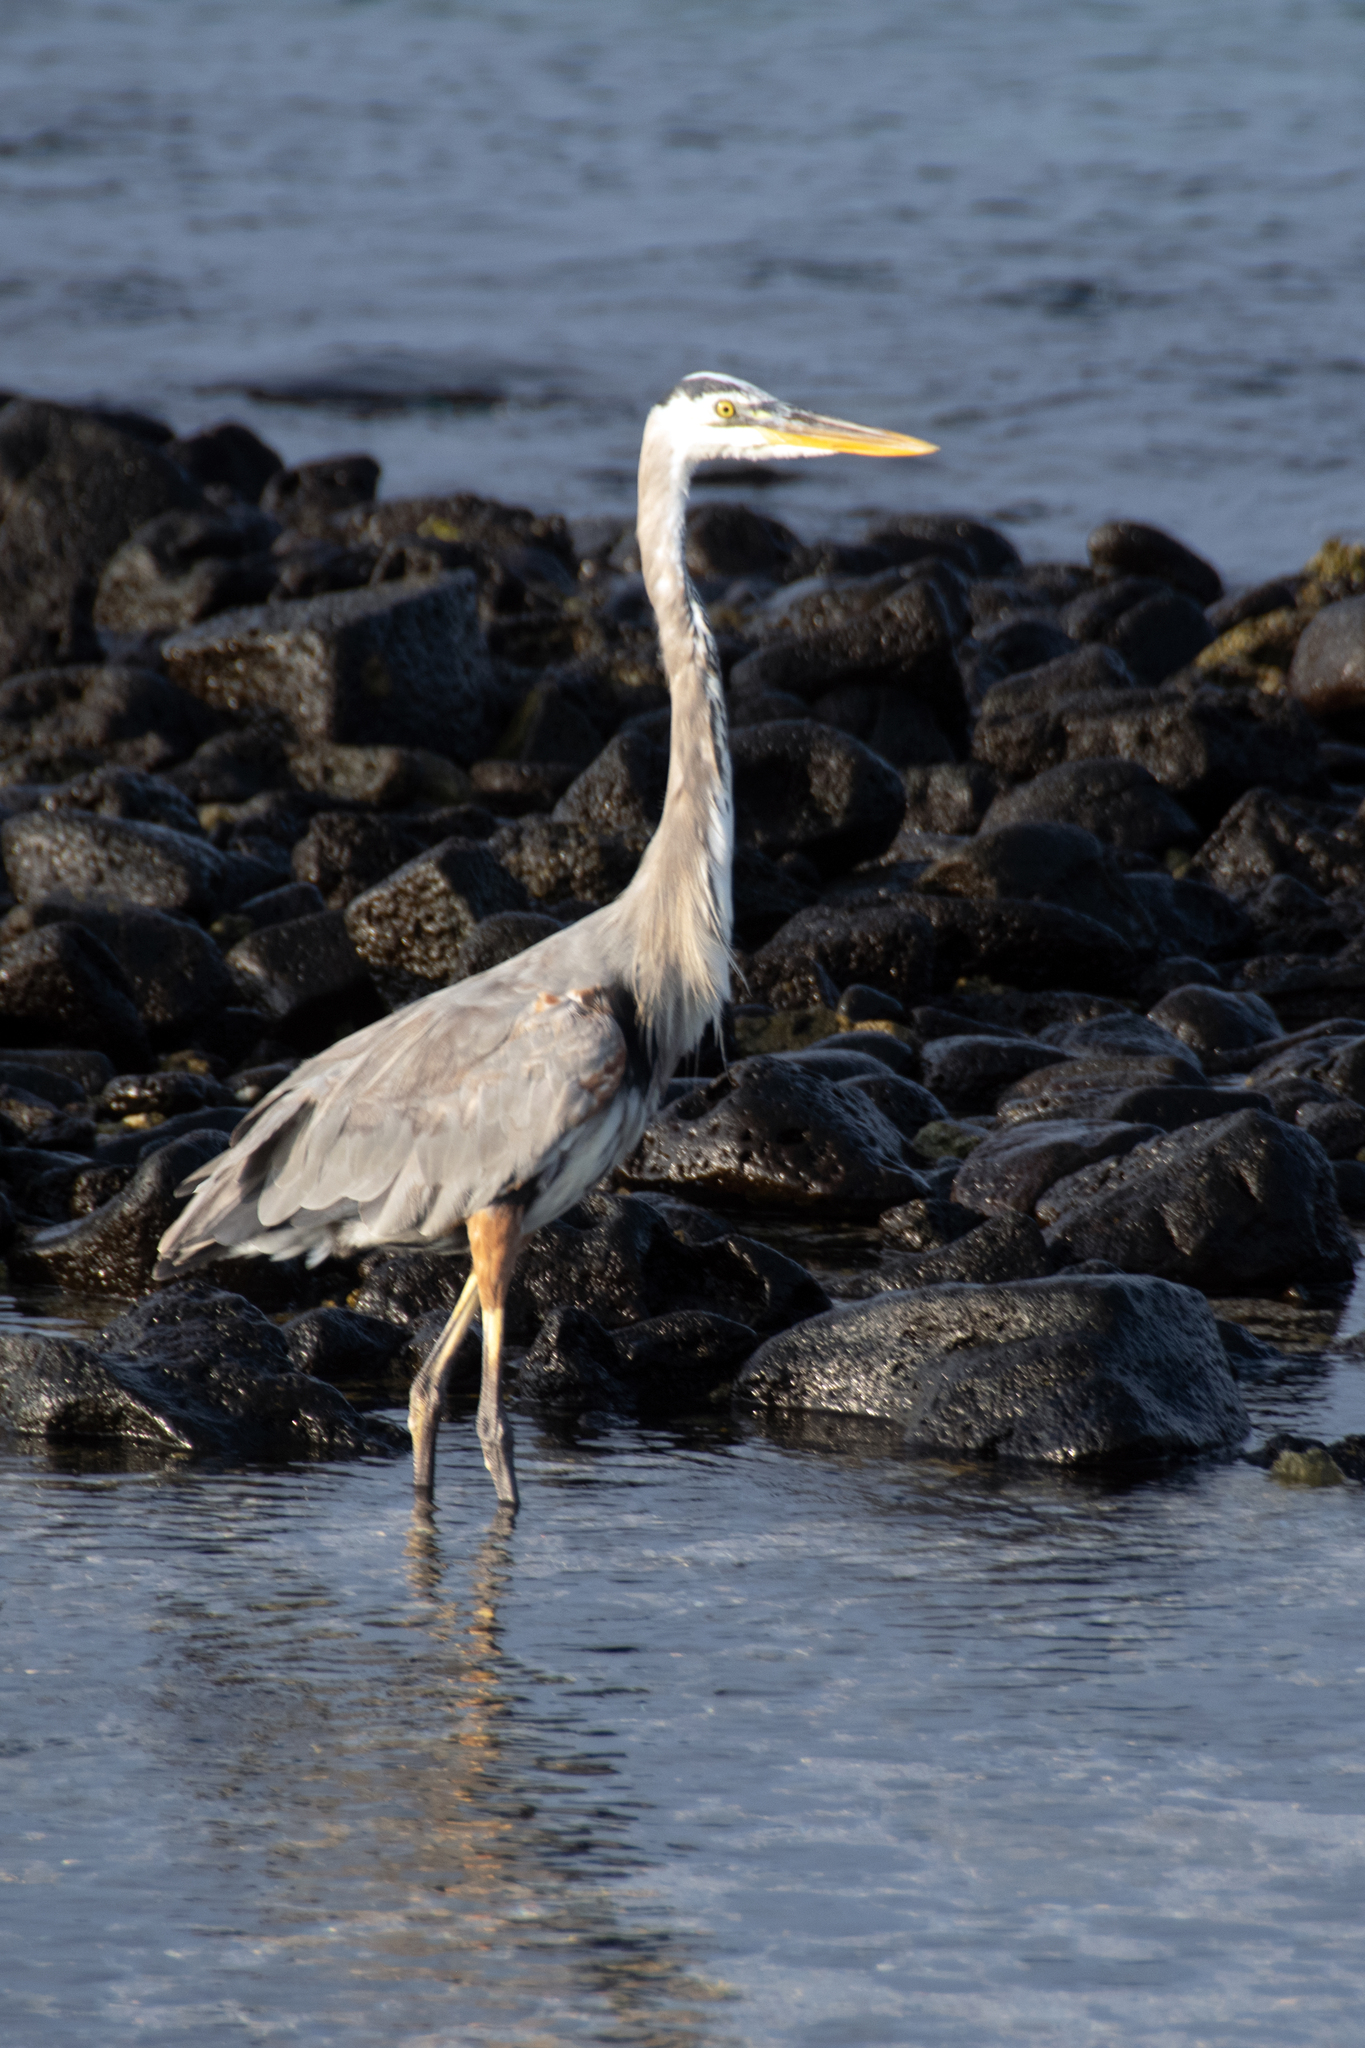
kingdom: Animalia
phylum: Chordata
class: Aves
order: Pelecaniformes
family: Ardeidae
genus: Ardea
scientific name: Ardea herodias
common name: Great blue heron
